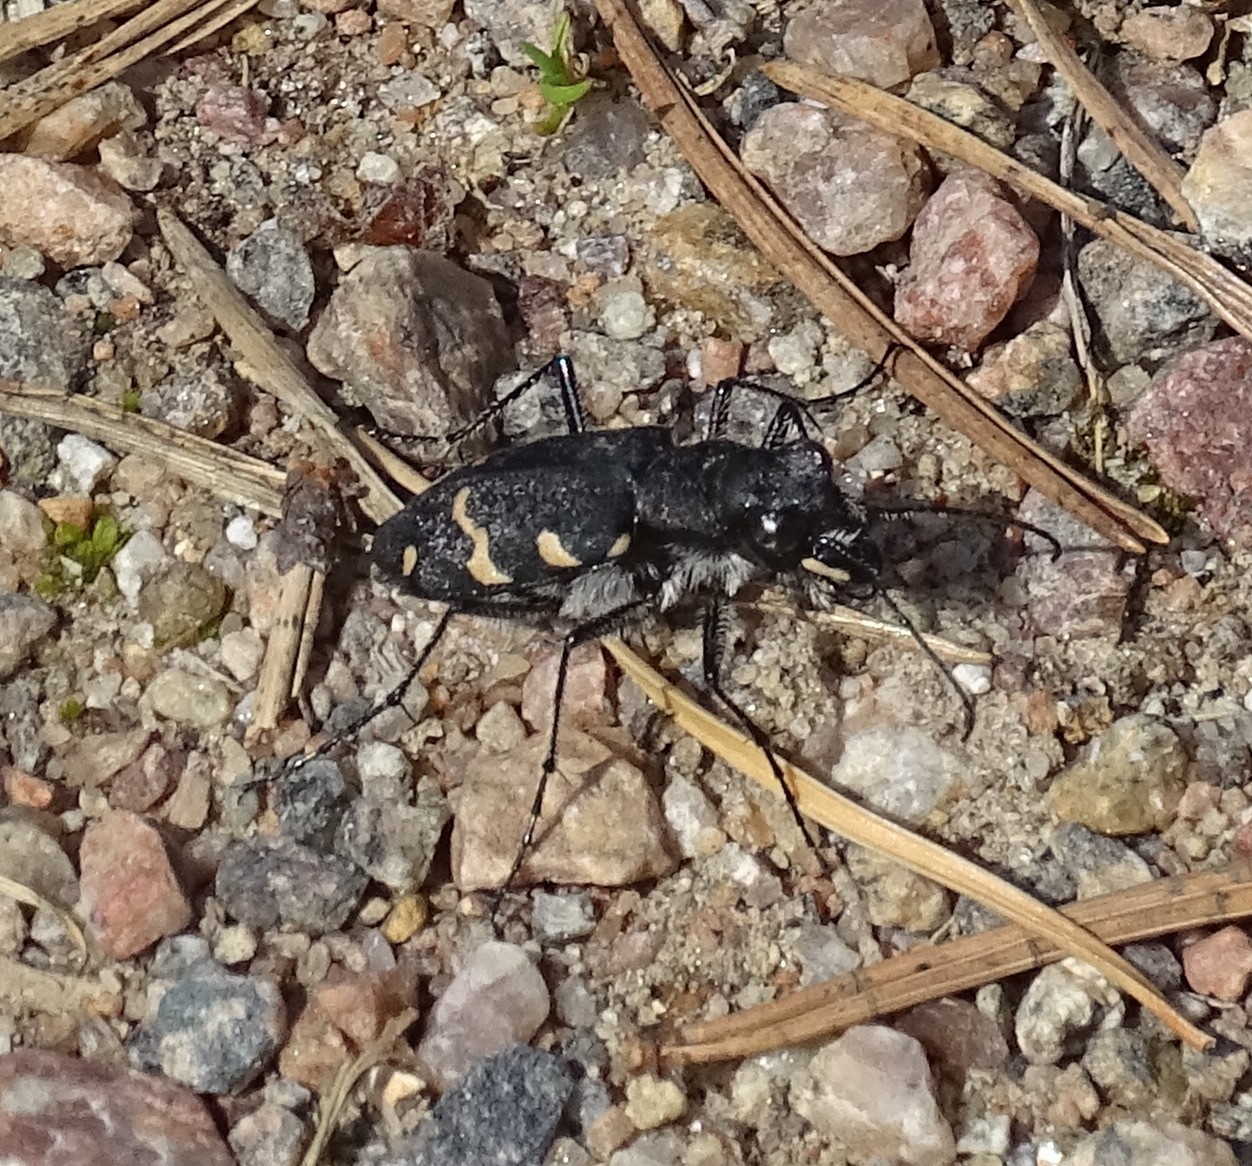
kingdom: Animalia
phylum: Arthropoda
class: Insecta
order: Coleoptera
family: Carabidae
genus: Cicindela
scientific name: Cicindela sylvatica
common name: Heath tiger beetle
